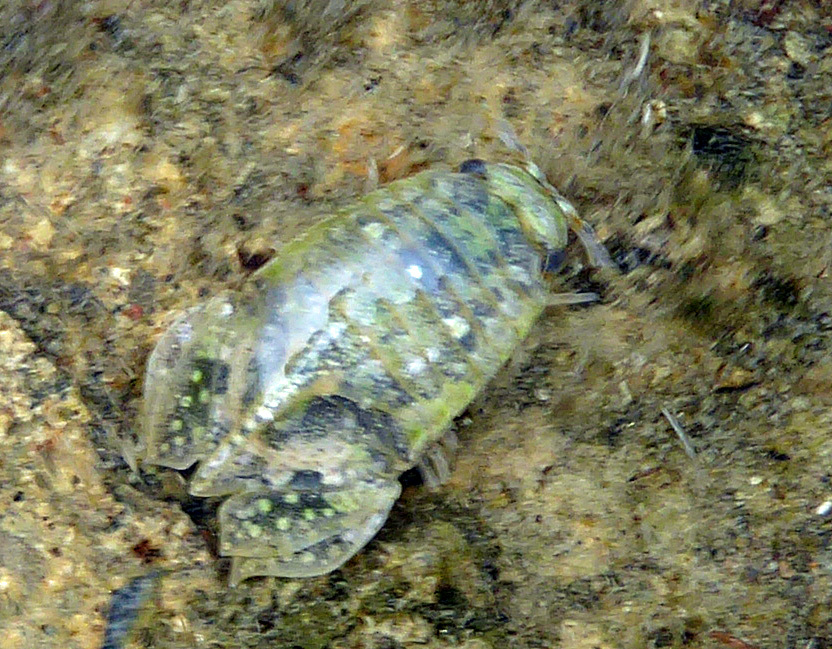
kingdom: Animalia
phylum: Arthropoda
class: Malacostraca
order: Isopoda
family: Sphaeromatidae
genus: Isocladus
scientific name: Isocladus armatus
